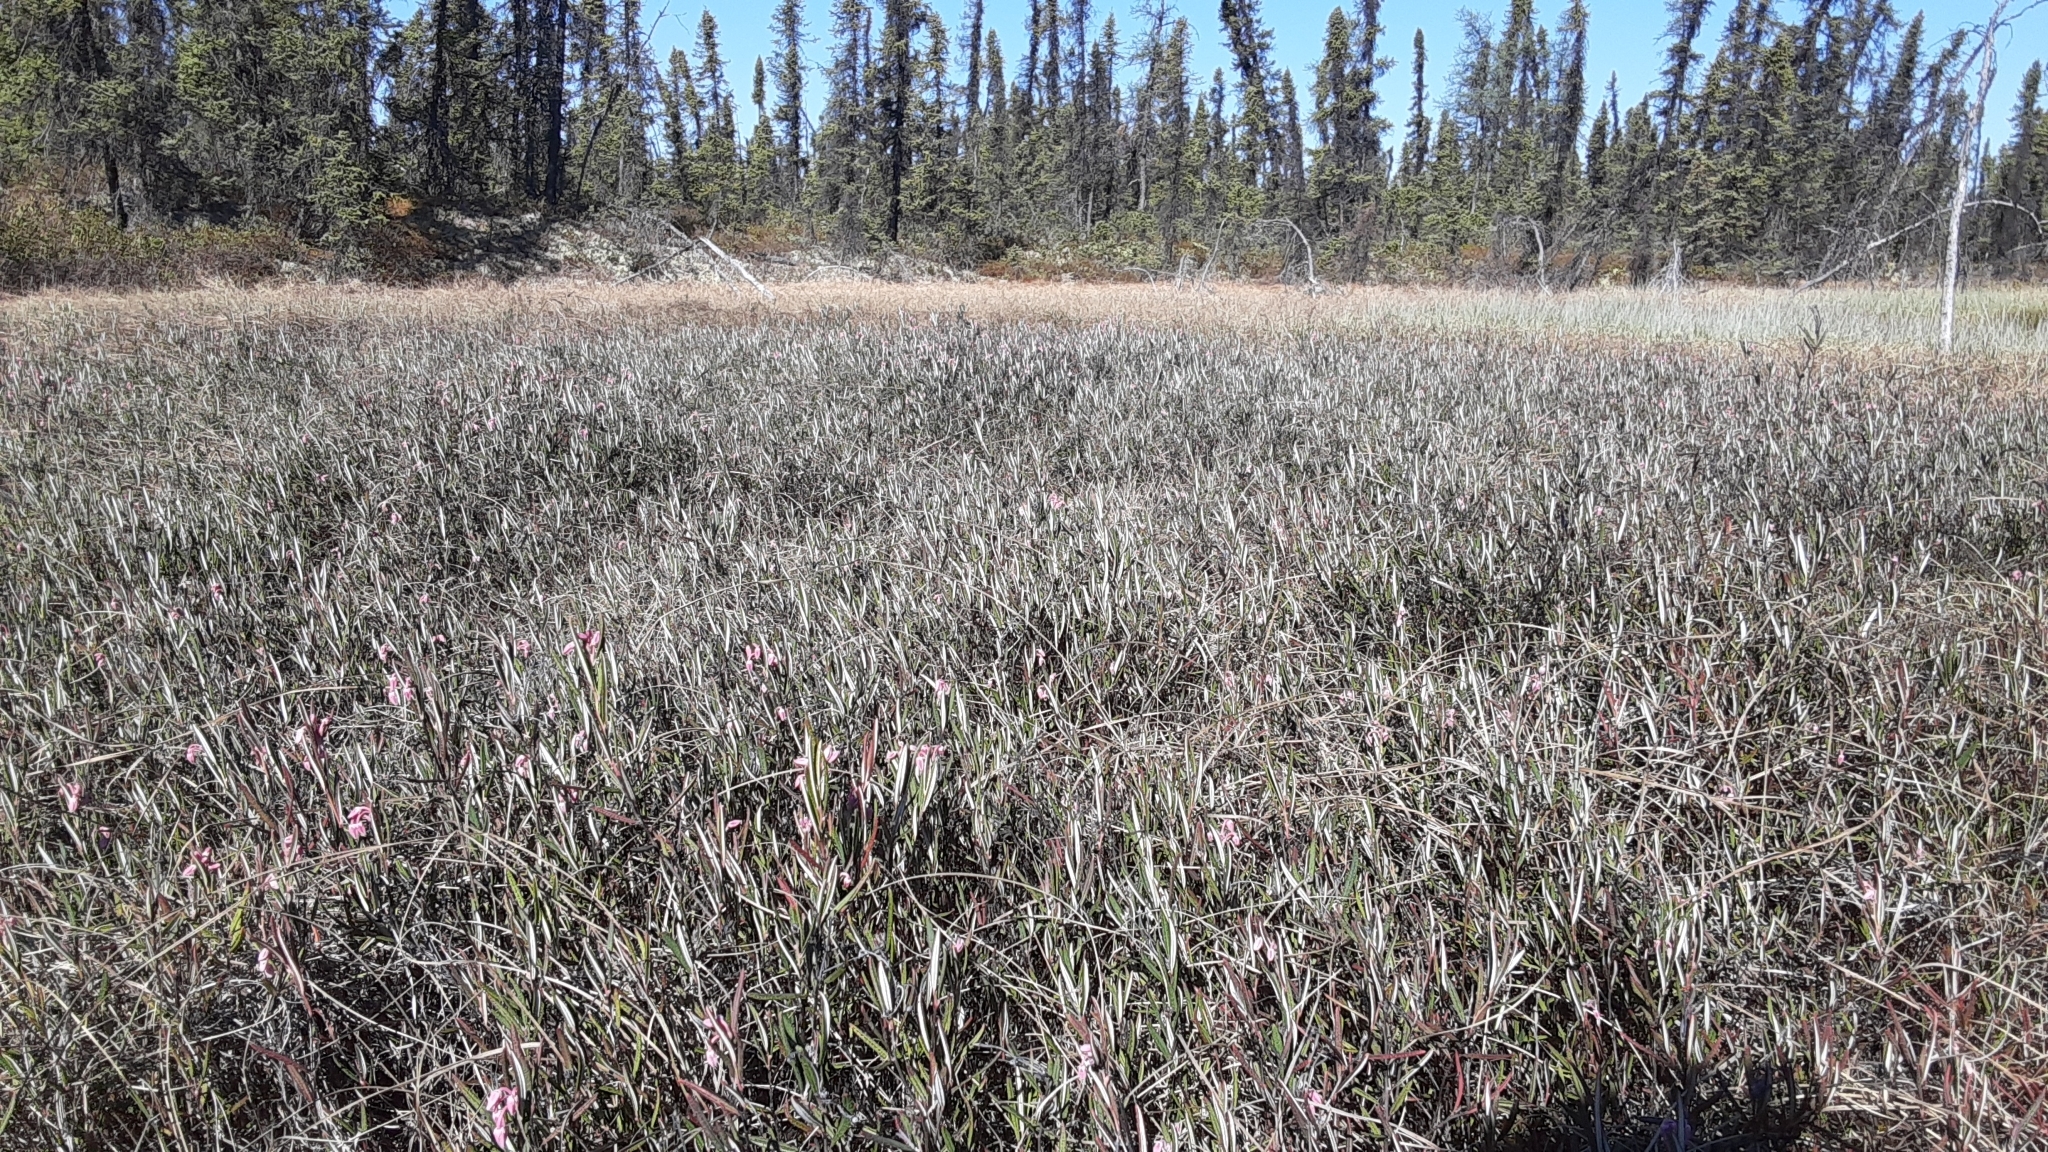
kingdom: Plantae
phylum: Tracheophyta
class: Magnoliopsida
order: Ericales
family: Ericaceae
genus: Andromeda
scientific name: Andromeda polifolia
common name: Bog-rosemary
